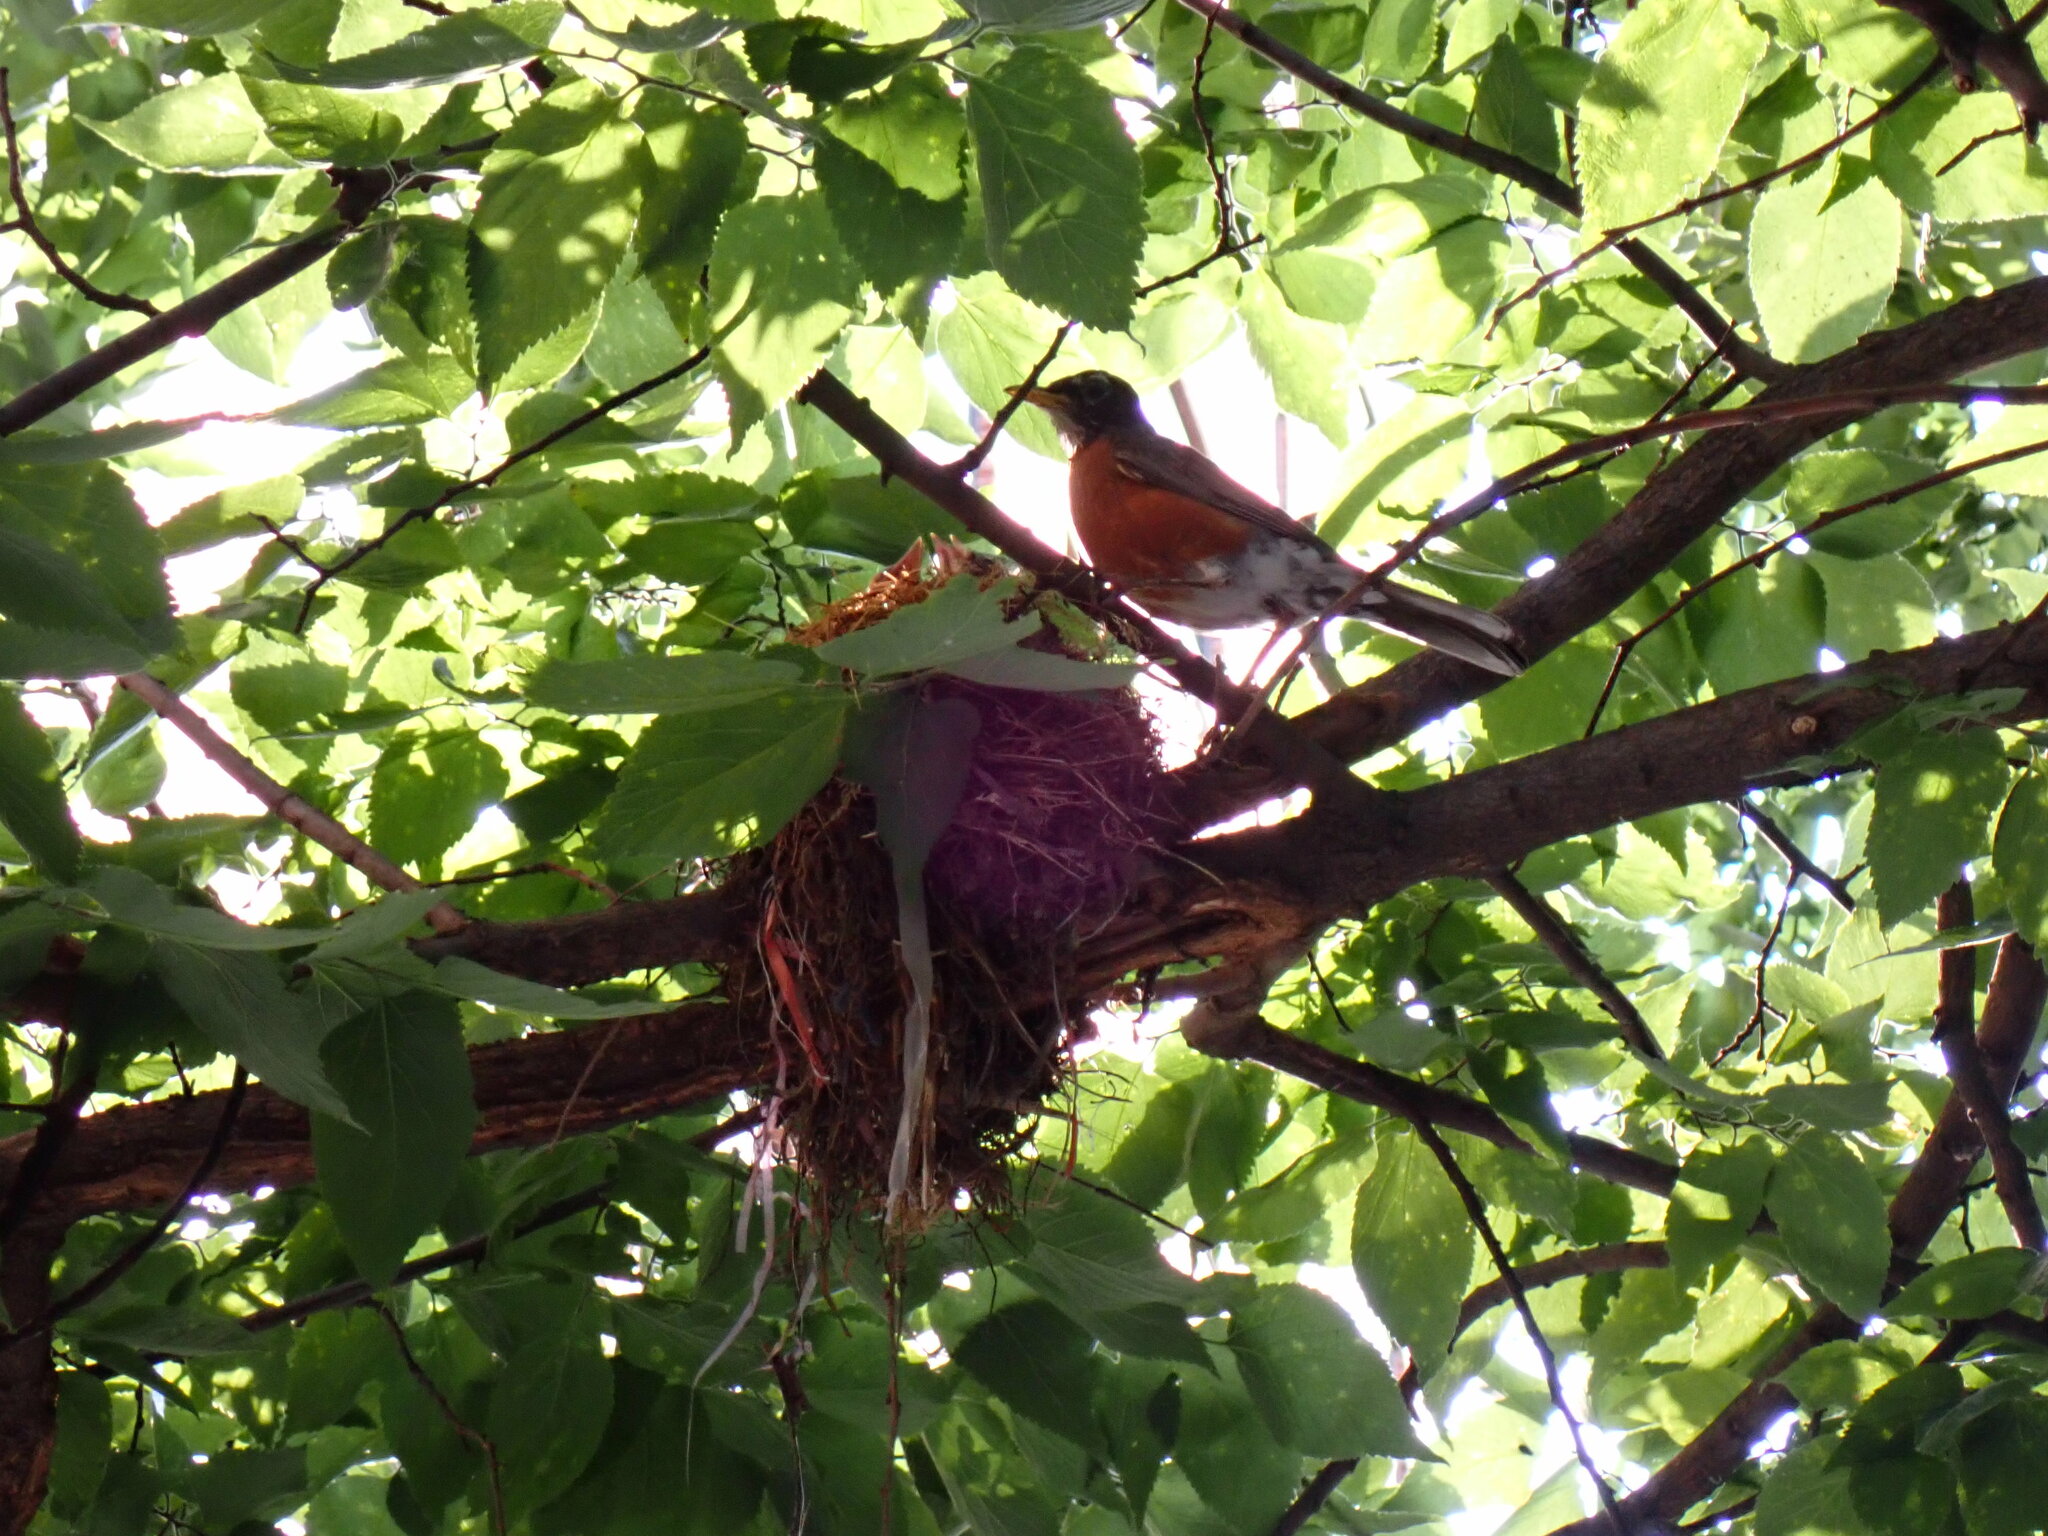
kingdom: Animalia
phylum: Chordata
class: Aves
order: Passeriformes
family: Turdidae
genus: Turdus
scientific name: Turdus migratorius
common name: American robin
